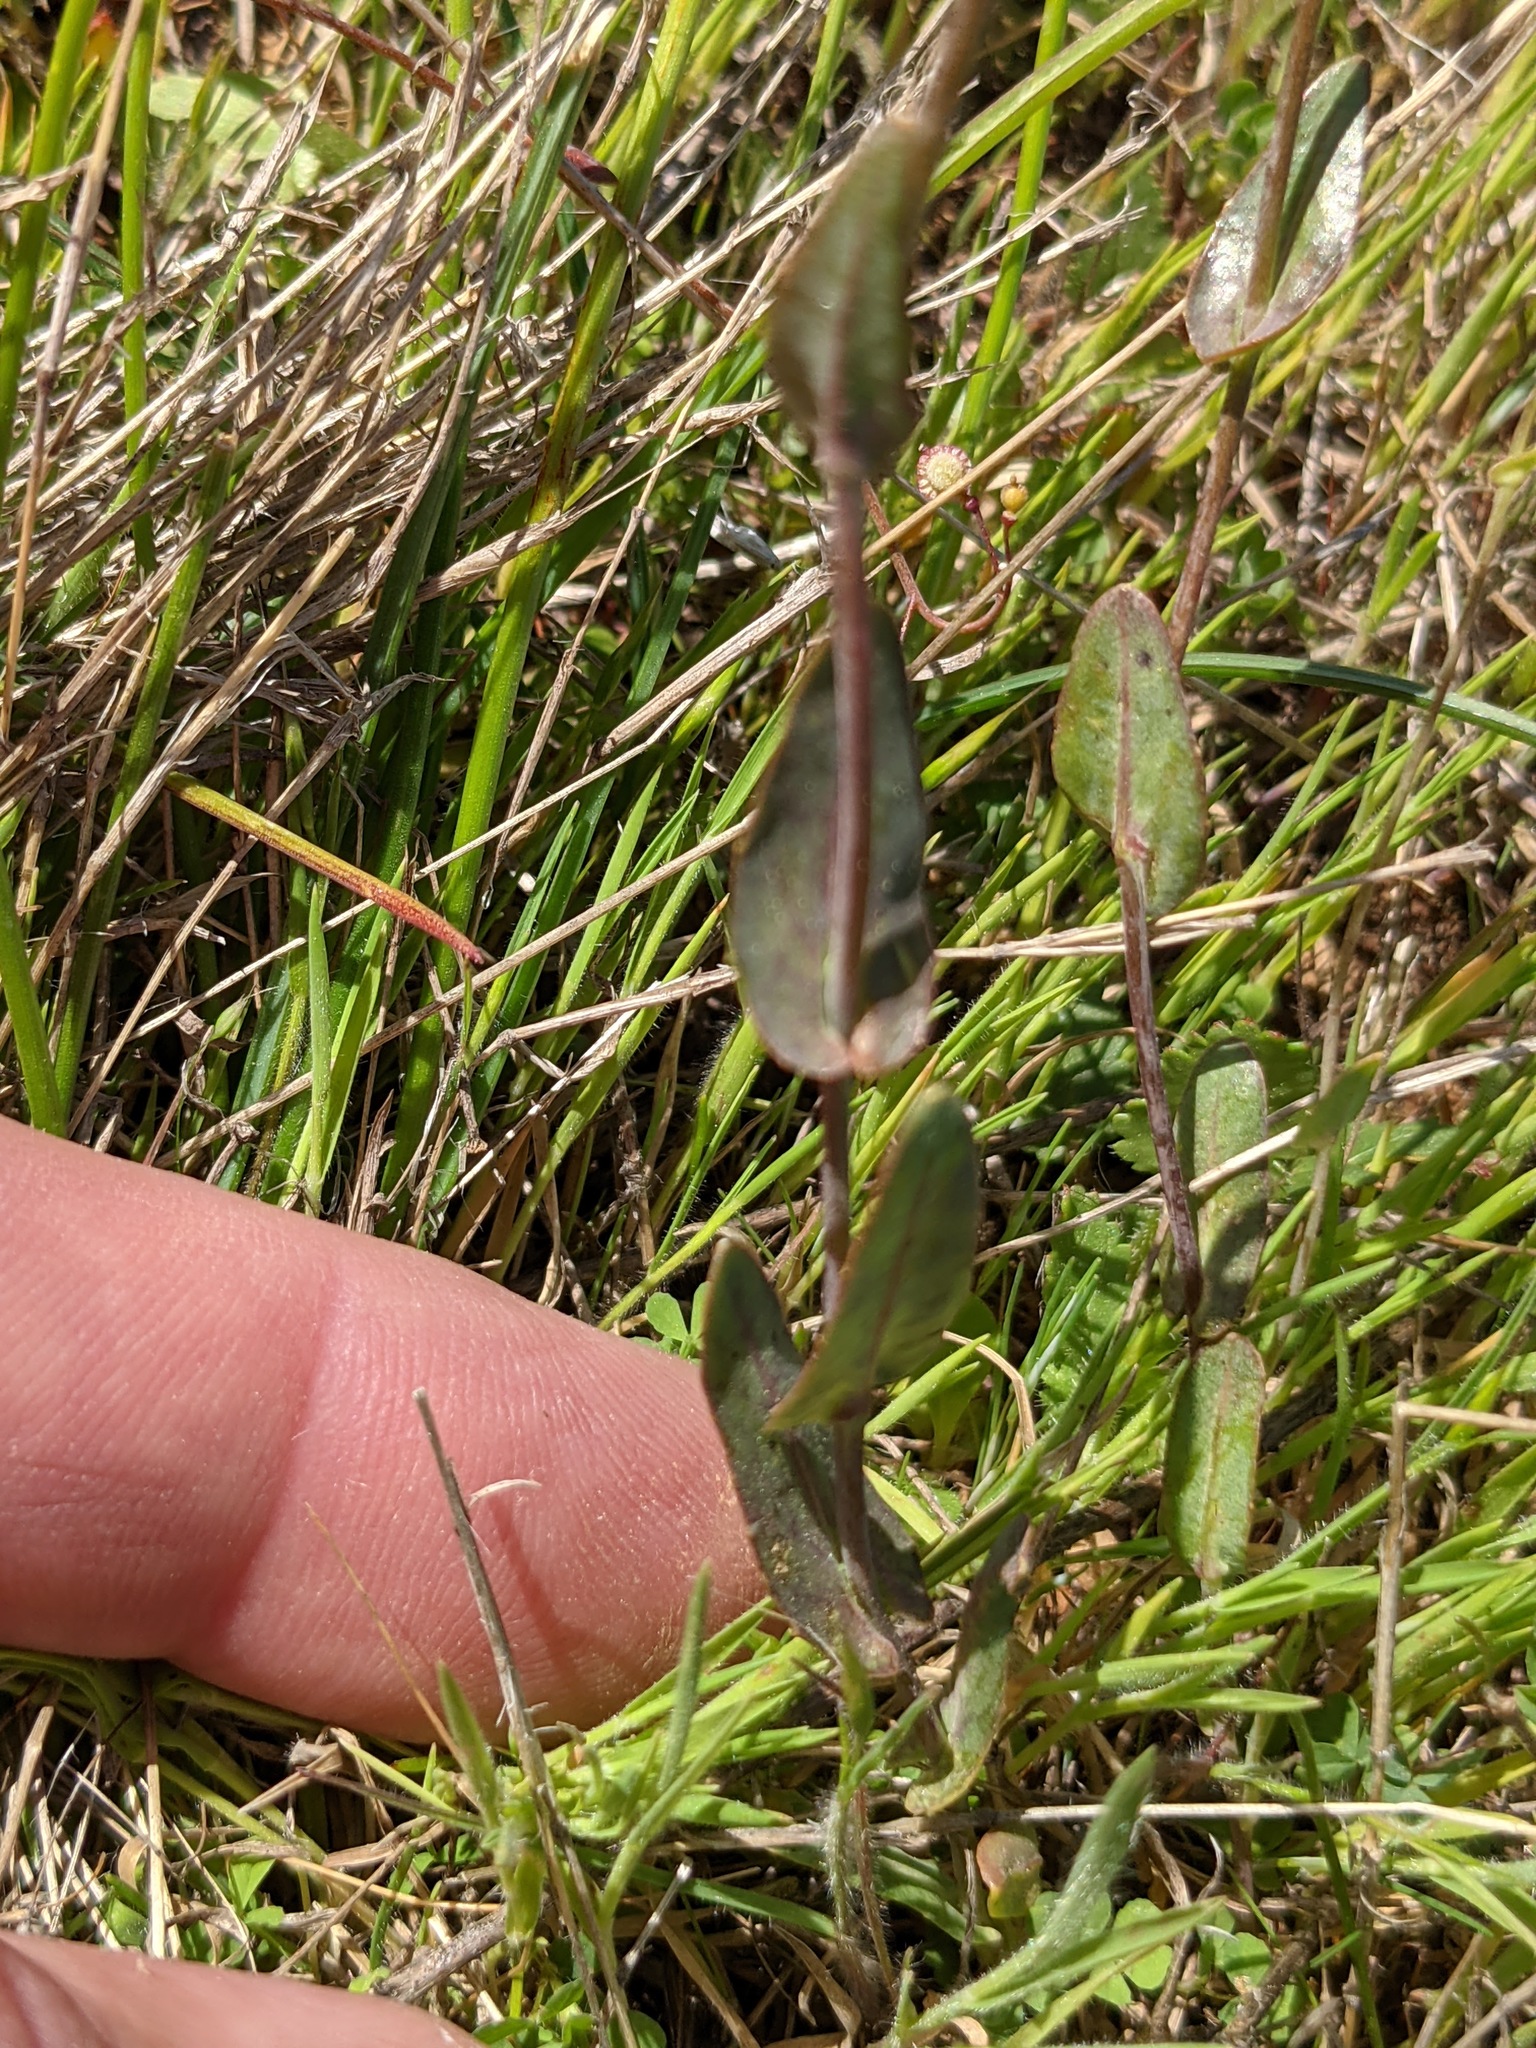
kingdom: Plantae
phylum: Tracheophyta
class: Magnoliopsida
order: Brassicales
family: Brassicaceae
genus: Thysanocarpus
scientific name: Thysanocarpus radians
